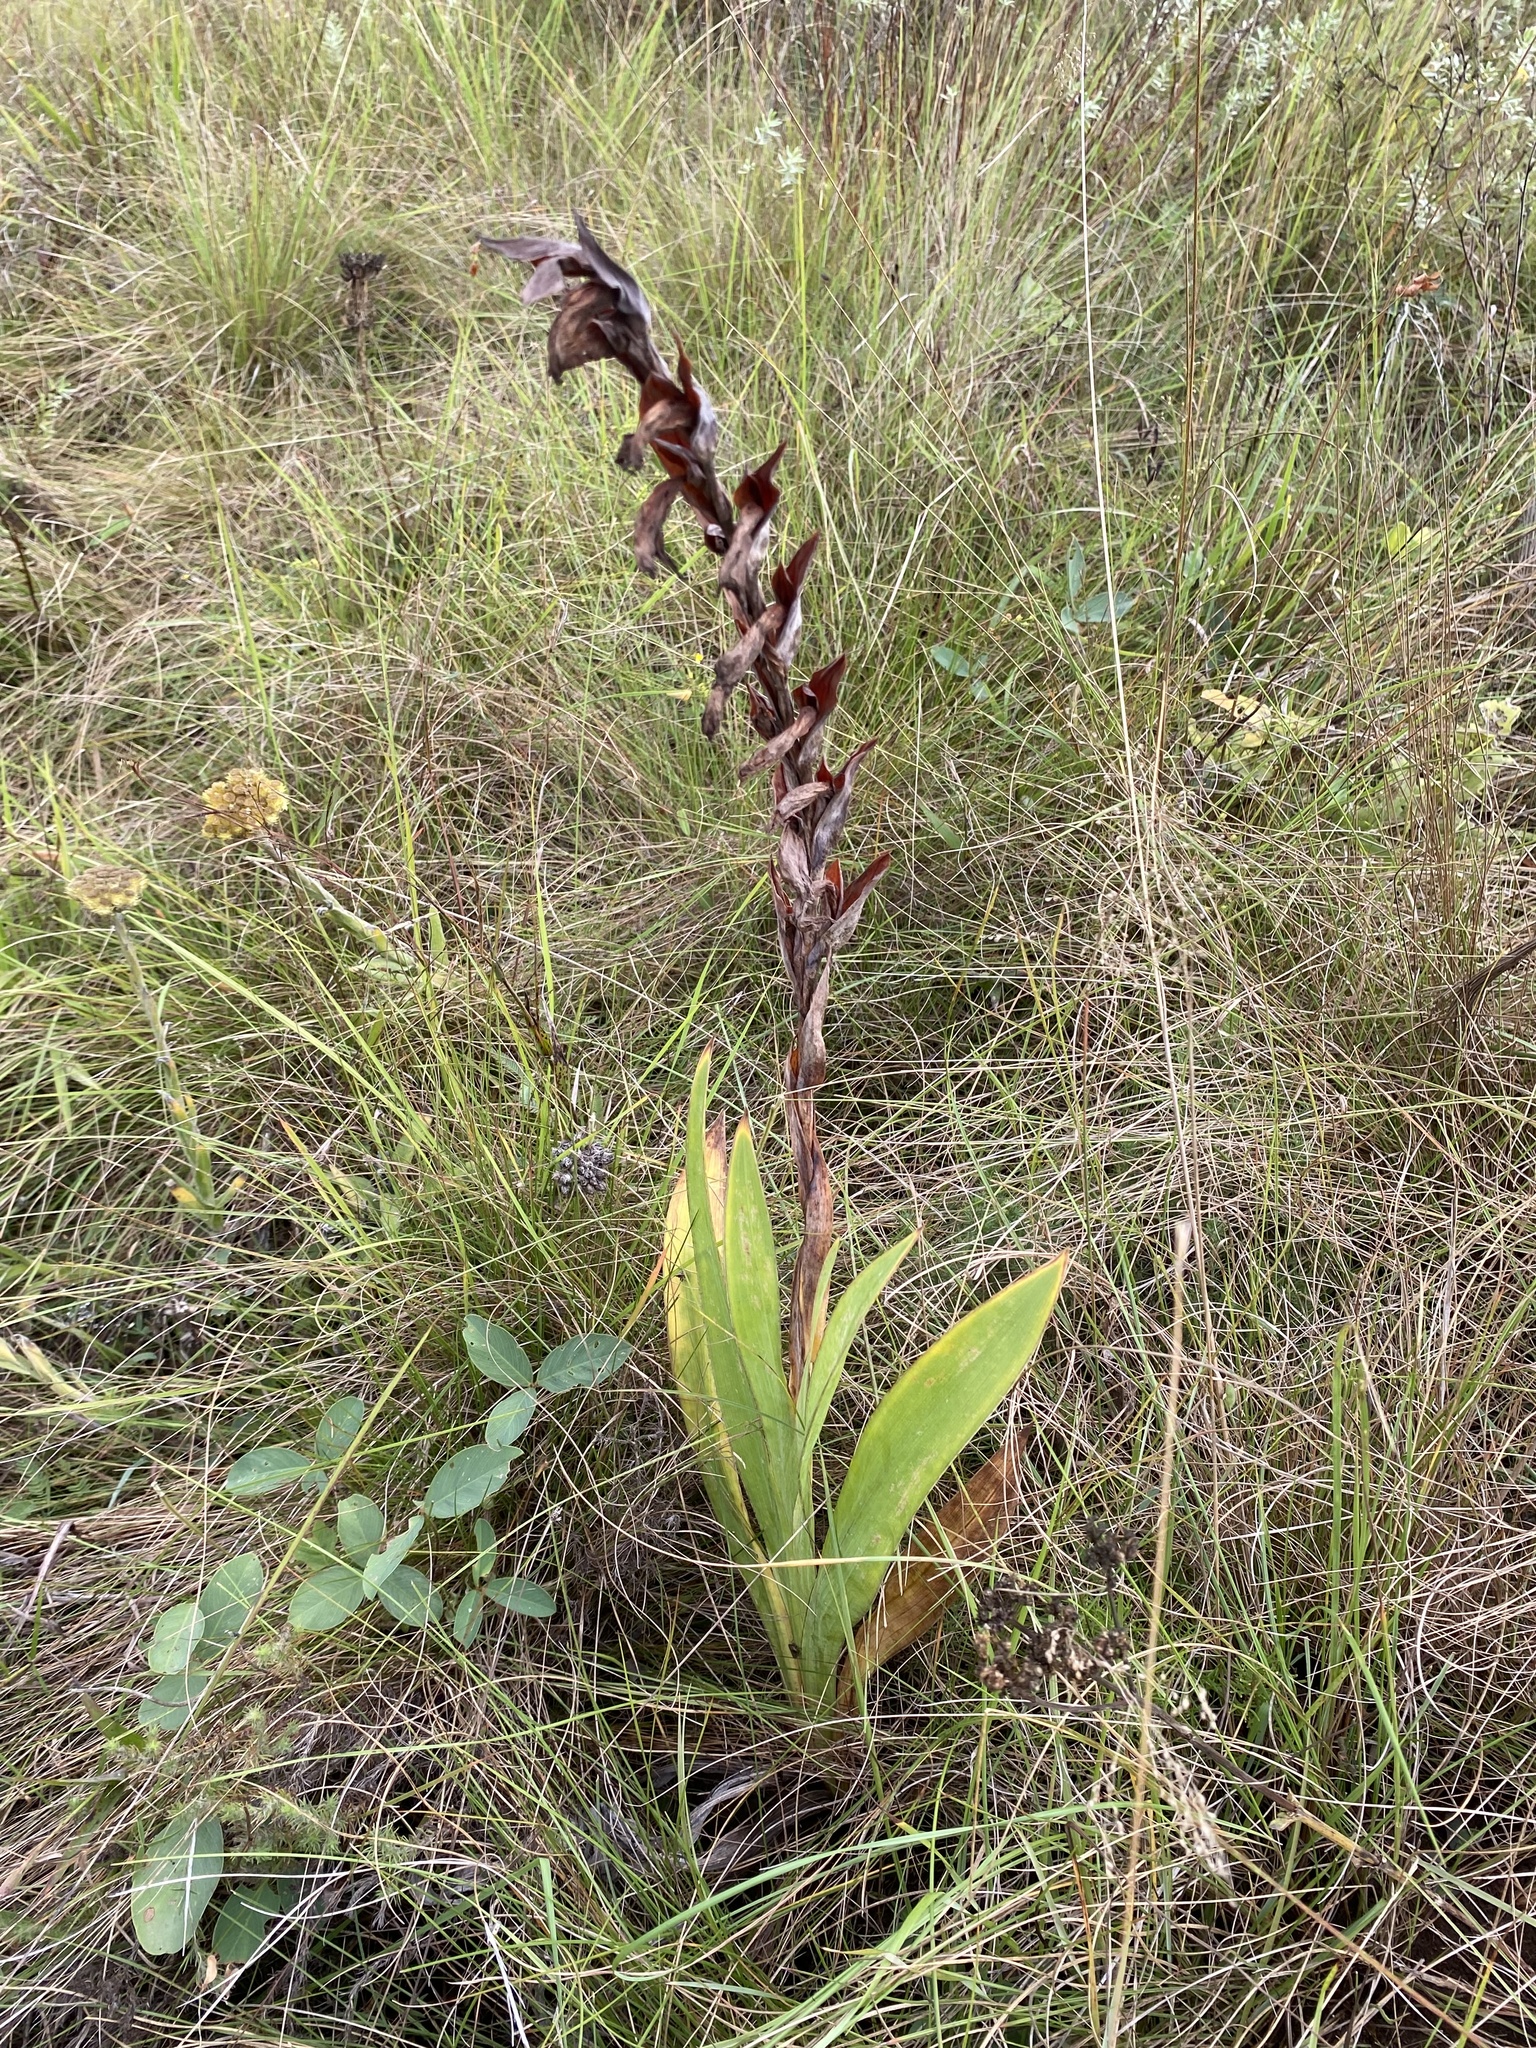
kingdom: Plantae
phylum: Tracheophyta
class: Liliopsida
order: Asparagales
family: Iridaceae
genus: Gladiolus
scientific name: Gladiolus ecklonii
